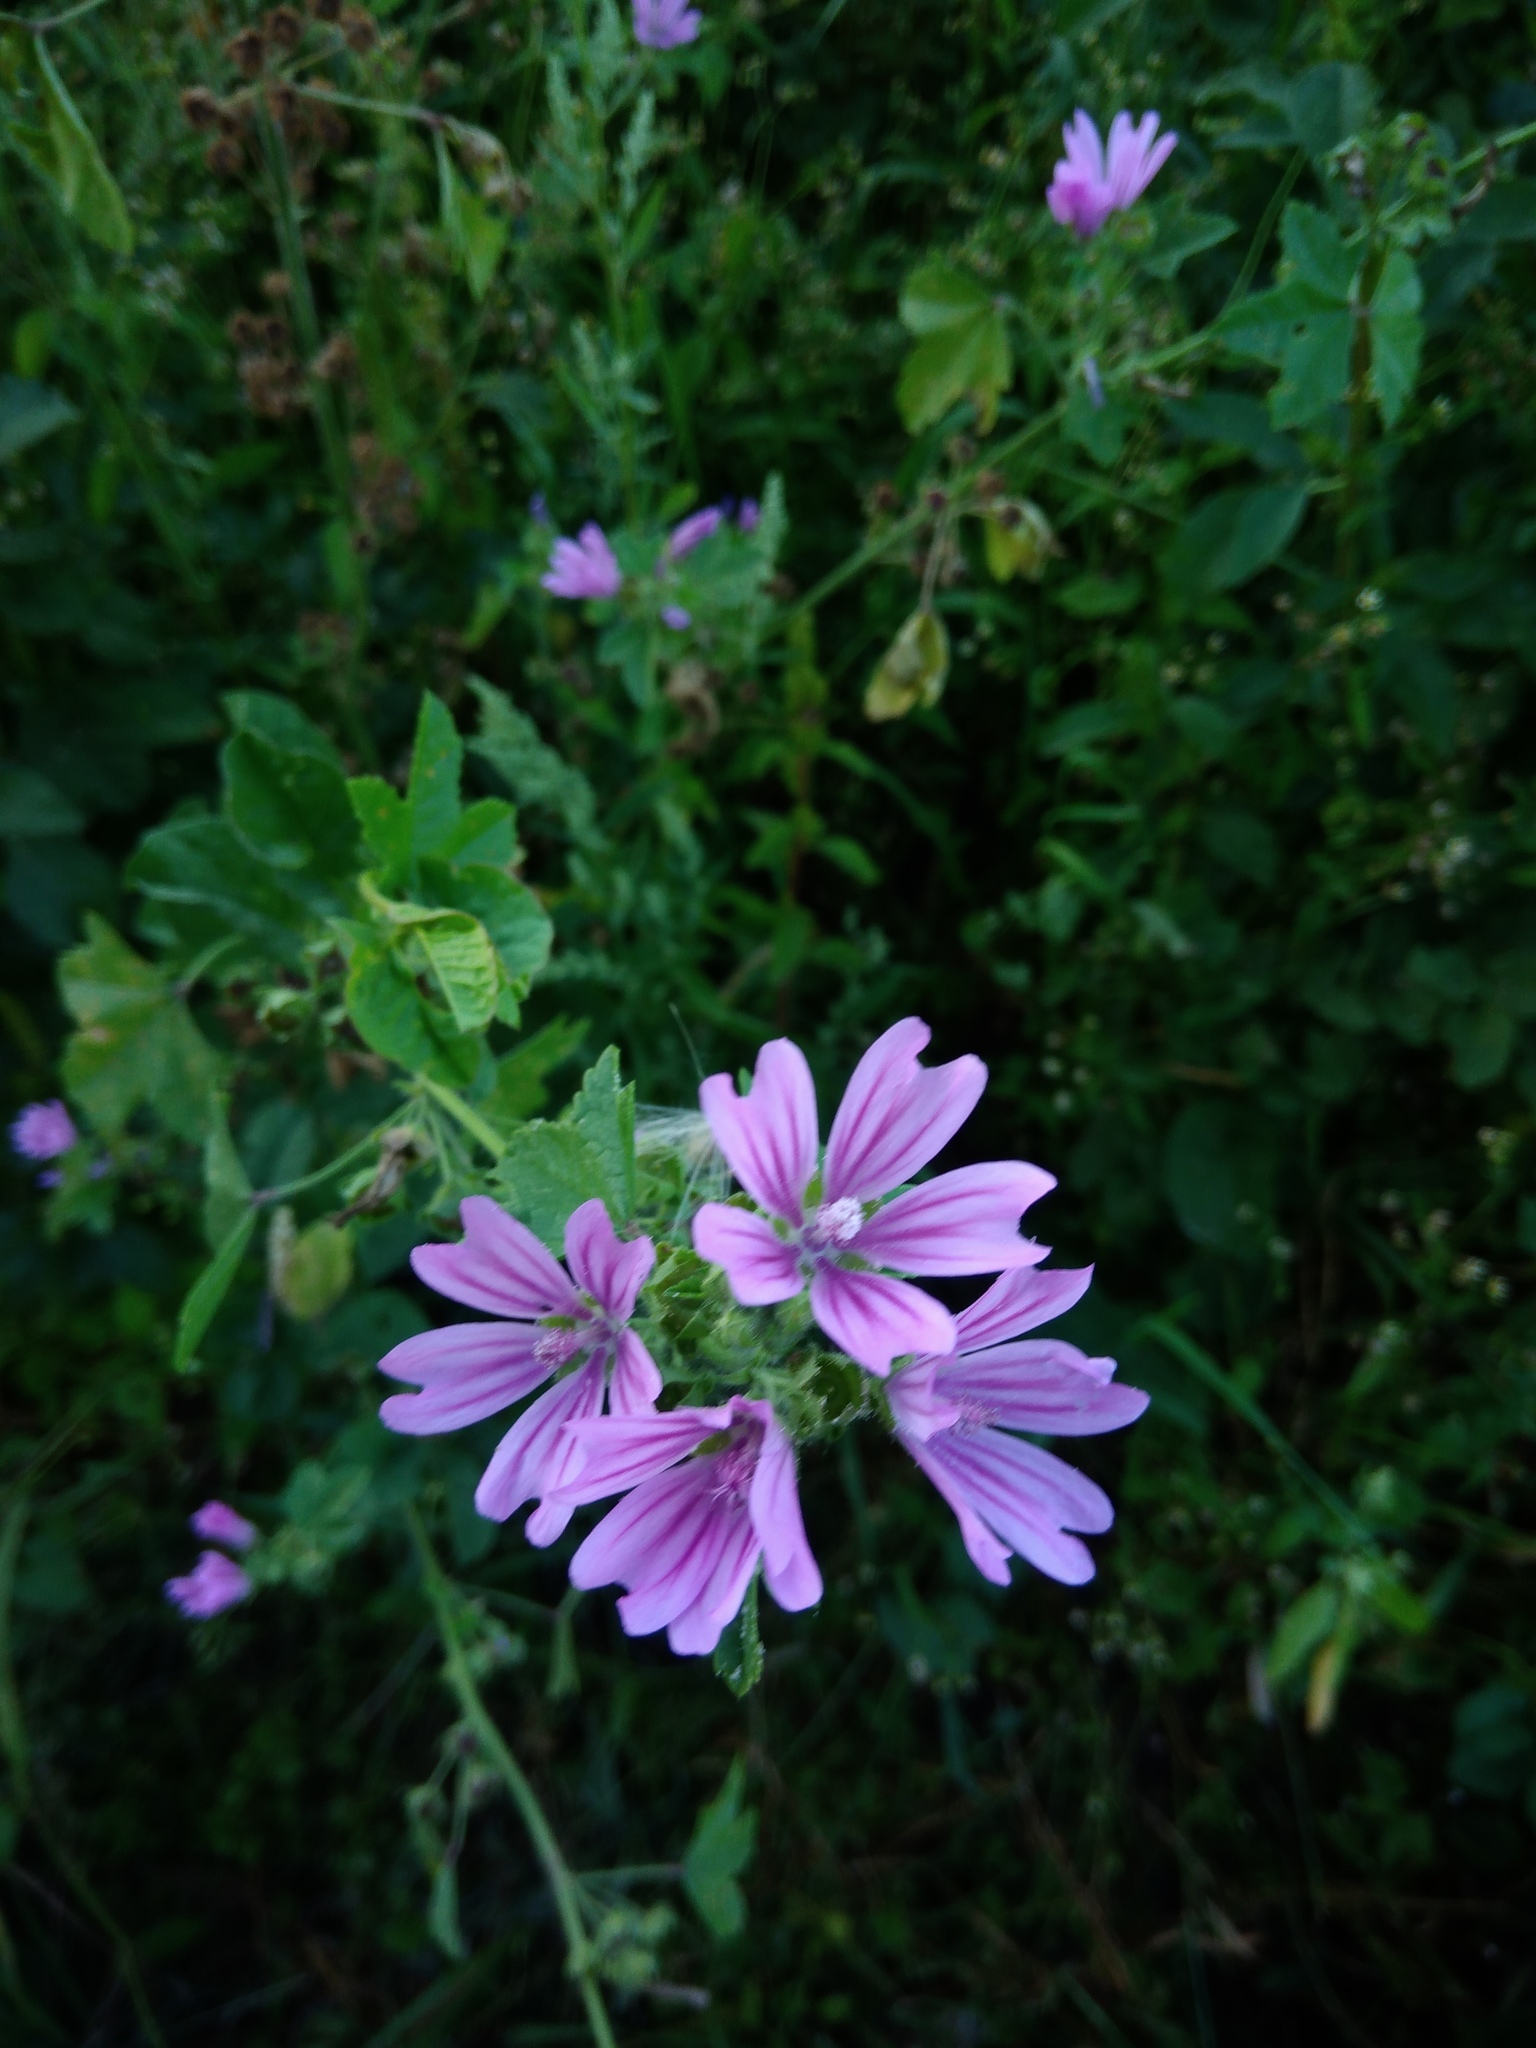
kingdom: Plantae
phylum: Tracheophyta
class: Magnoliopsida
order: Malvales
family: Malvaceae
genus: Malva
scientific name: Malva sylvestris
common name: Common mallow
